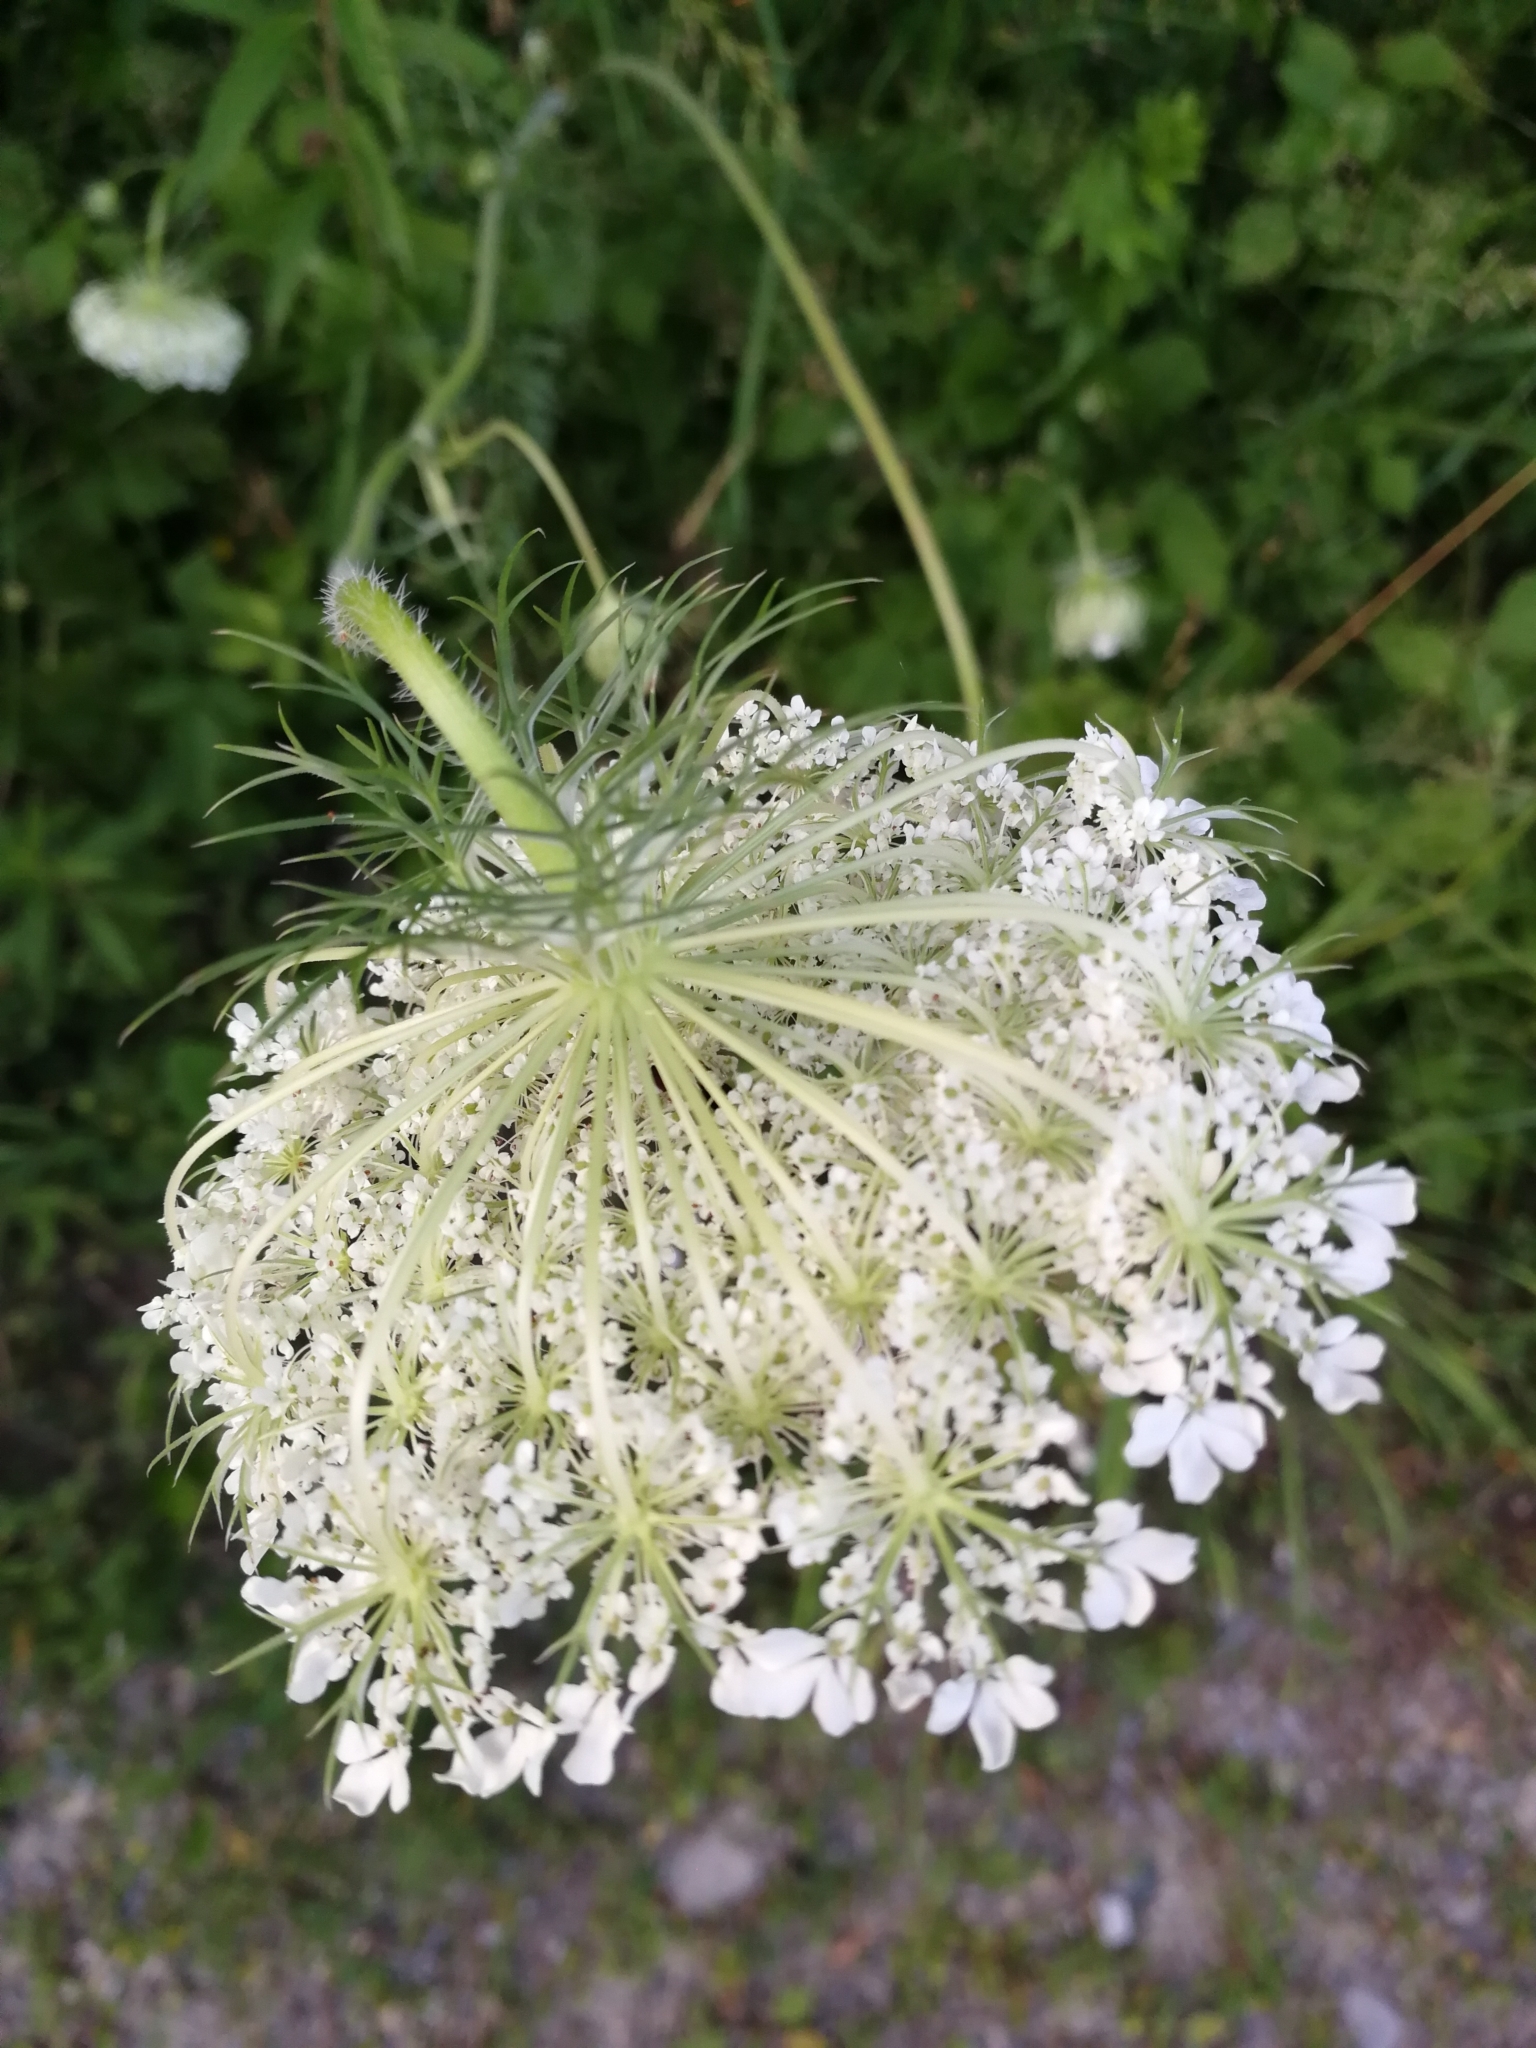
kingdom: Plantae
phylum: Tracheophyta
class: Magnoliopsida
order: Apiales
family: Apiaceae
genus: Daucus
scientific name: Daucus carota
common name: Wild carrot
